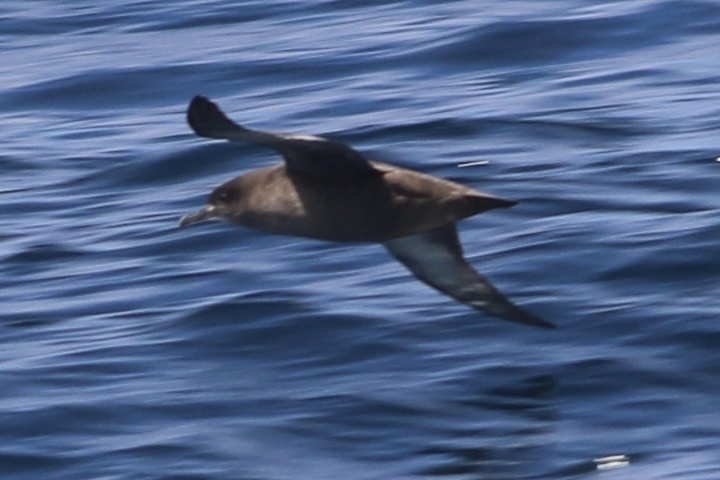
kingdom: Animalia
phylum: Chordata
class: Aves
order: Procellariiformes
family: Procellariidae
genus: Puffinus
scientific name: Puffinus griseus
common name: Sooty shearwater
